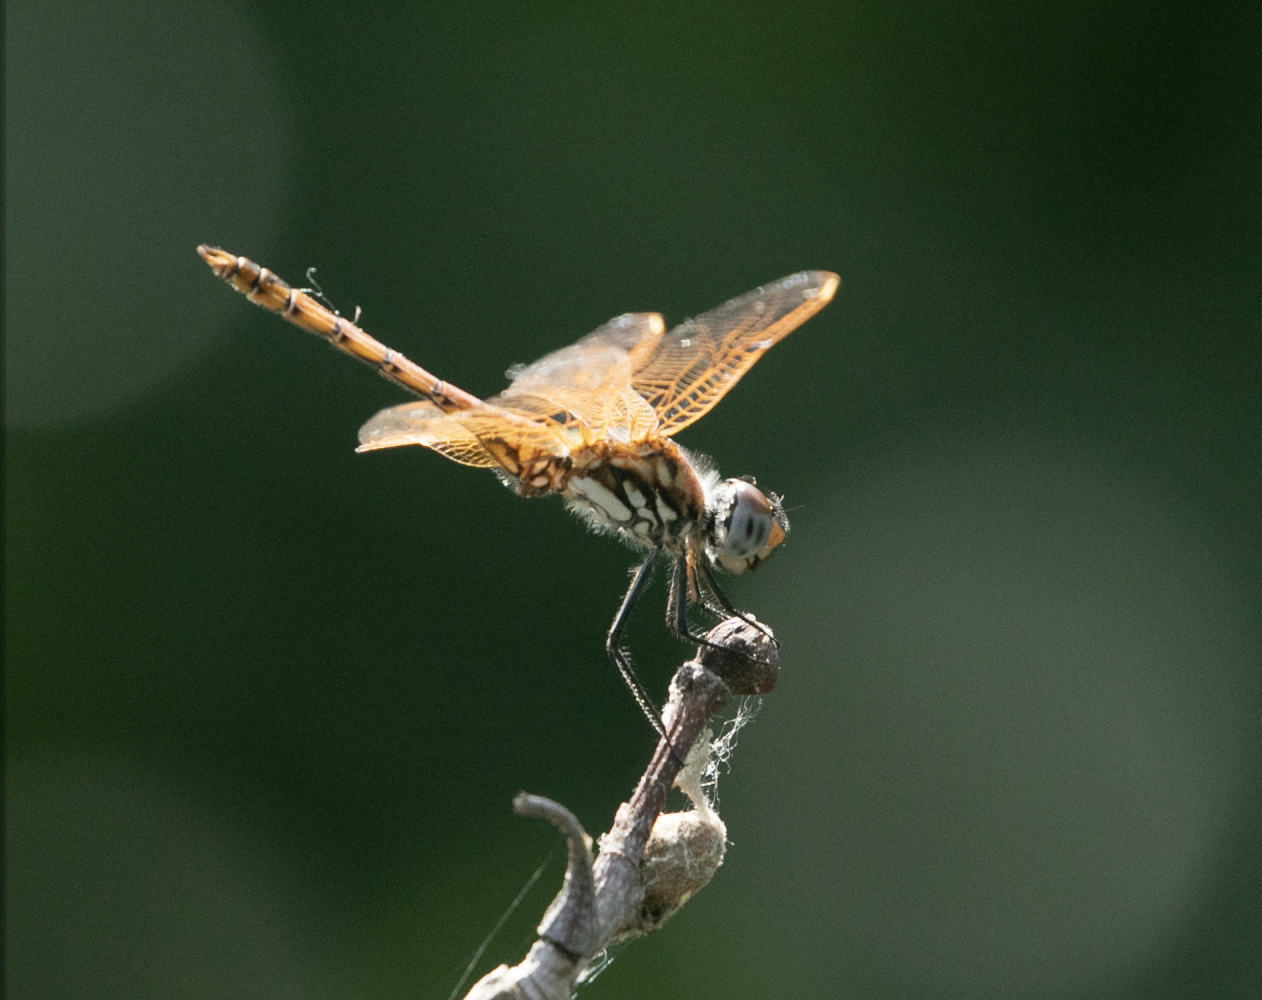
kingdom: Animalia
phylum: Arthropoda
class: Insecta
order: Odonata
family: Libellulidae
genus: Trithemis
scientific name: Trithemis annulata
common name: Violet dropwing
